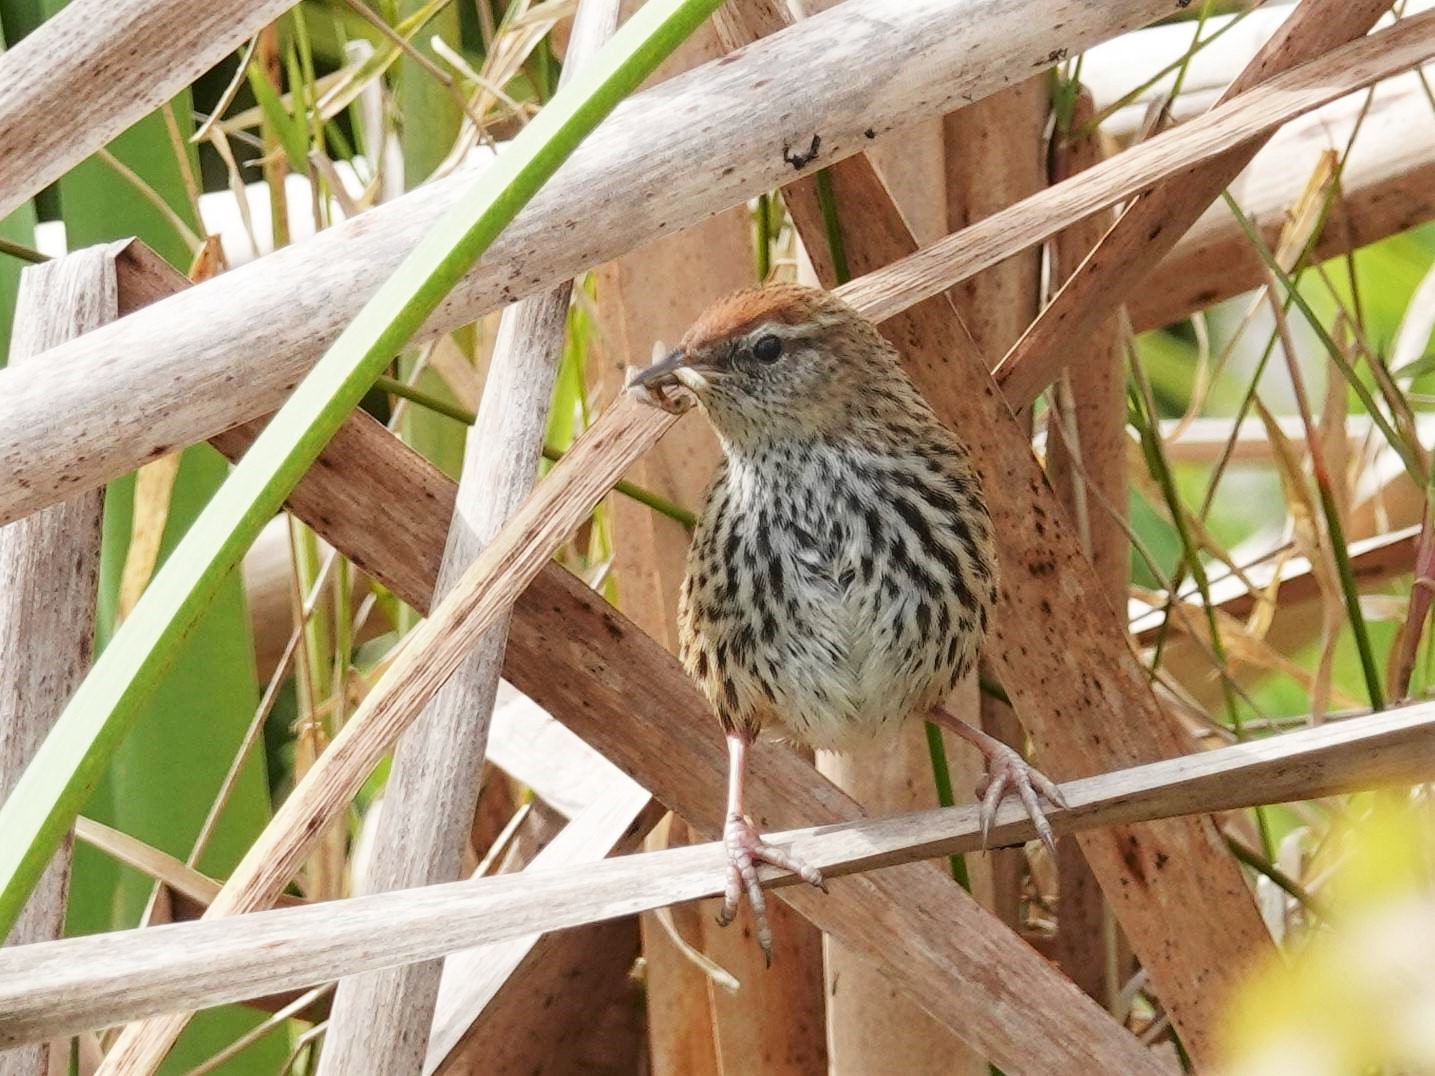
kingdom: Animalia
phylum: Chordata
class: Aves
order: Passeriformes
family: Locustellidae
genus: Megalurus
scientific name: Megalurus punctatus
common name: New zealand fernbird
